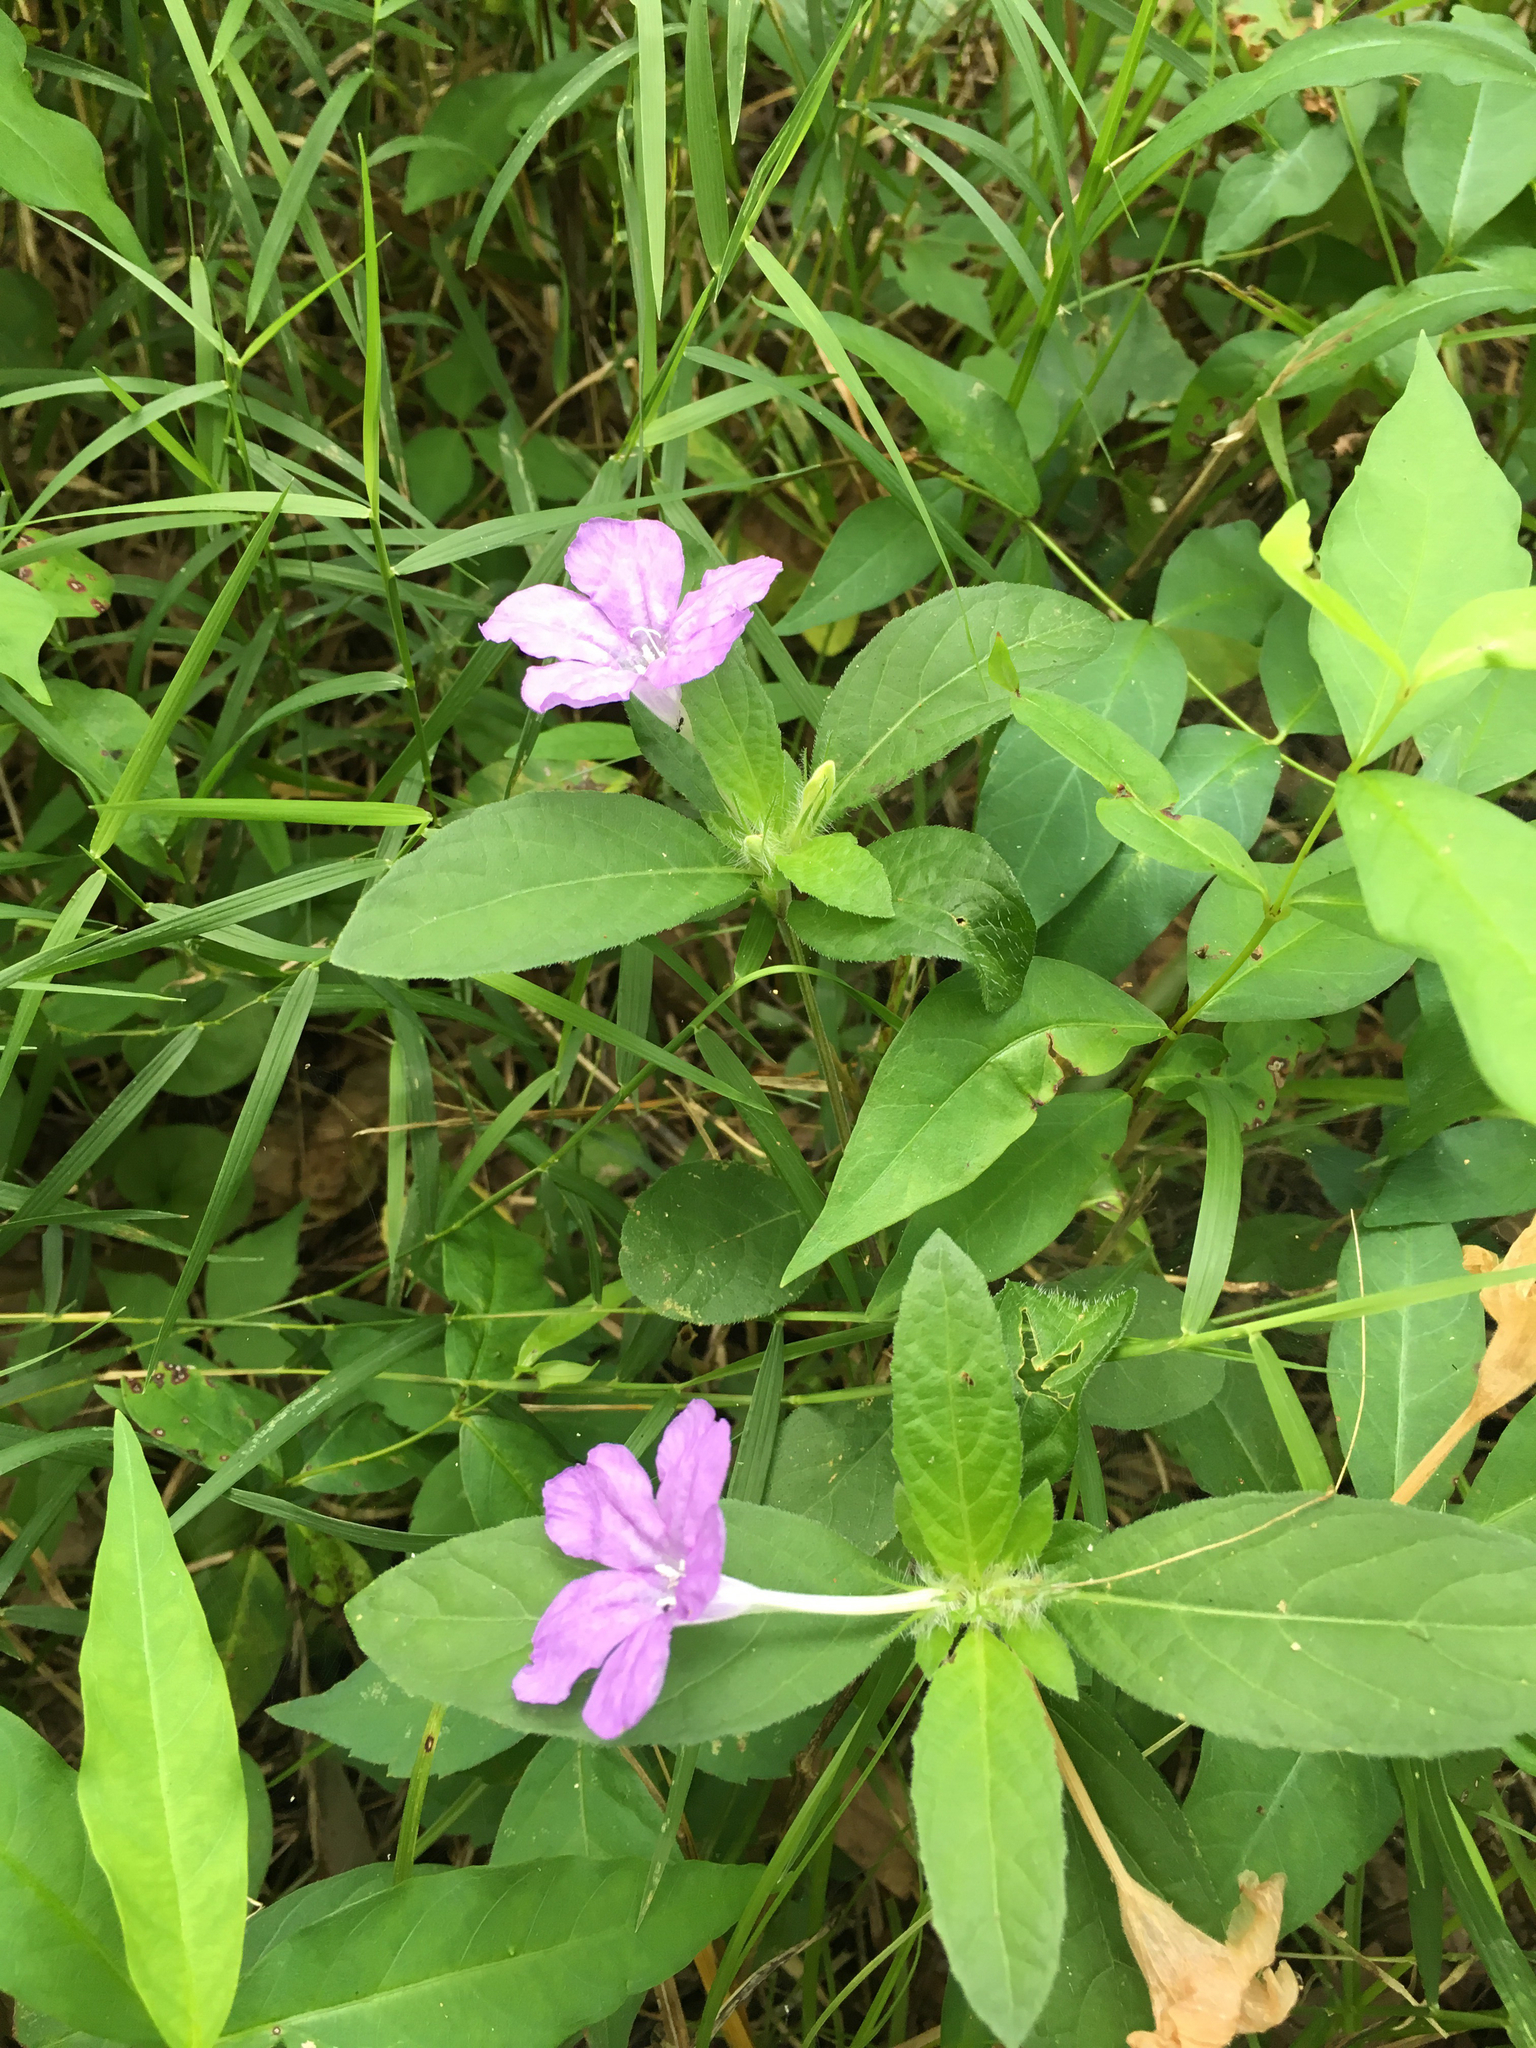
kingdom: Plantae
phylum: Tracheophyta
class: Magnoliopsida
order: Lamiales
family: Acanthaceae
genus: Ruellia
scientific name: Ruellia caroliniensis
